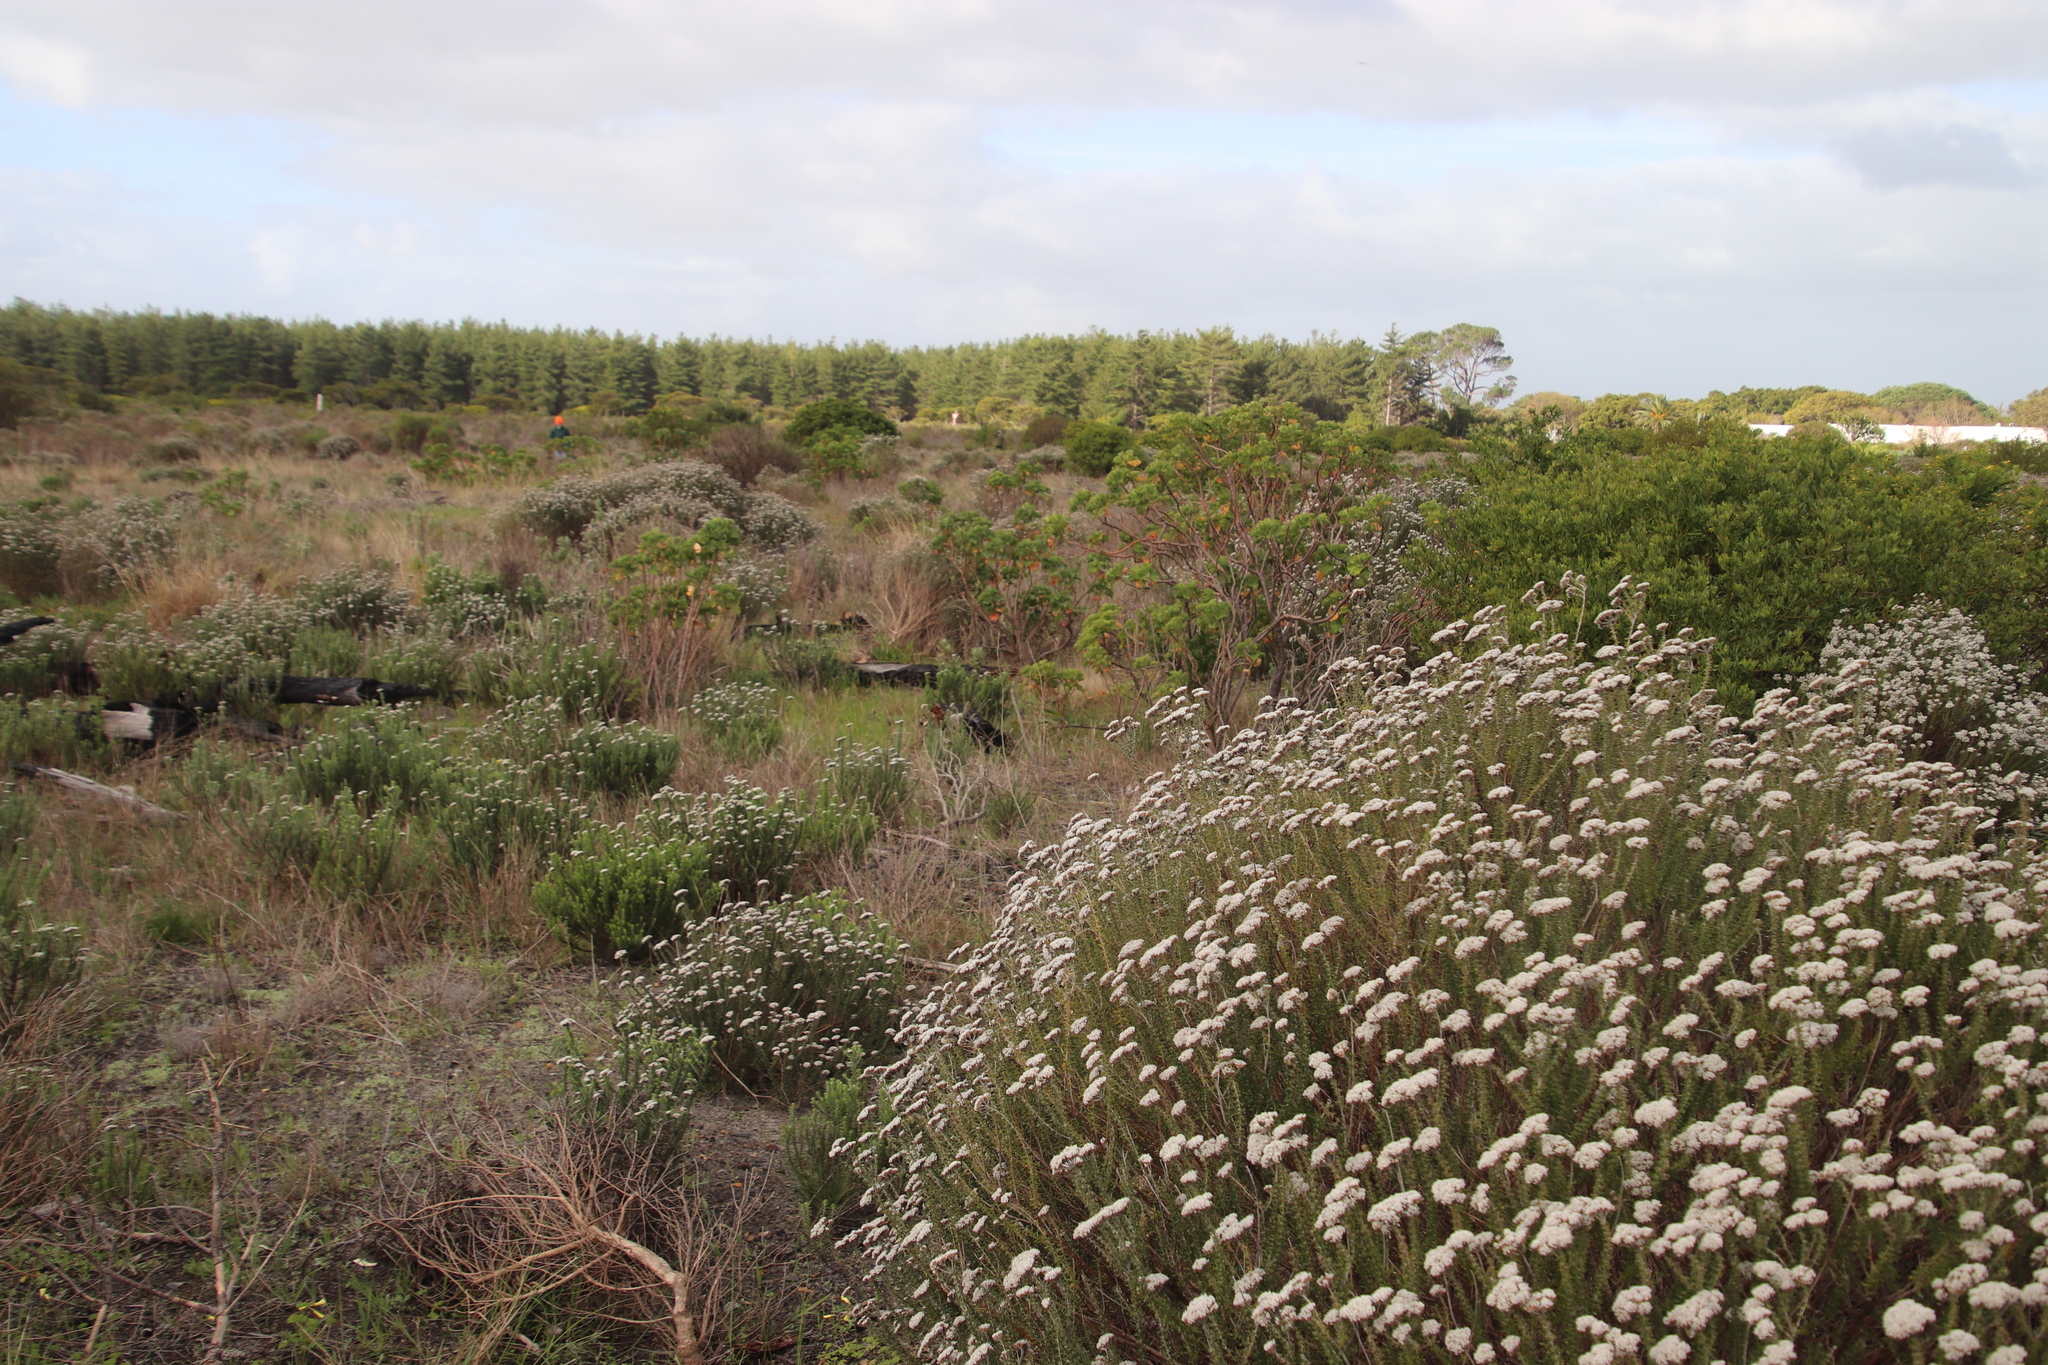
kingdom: Plantae
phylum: Tracheophyta
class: Magnoliopsida
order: Geraniales
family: Geraniaceae
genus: Pelargonium
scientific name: Pelargonium cucullatum
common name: Tree pelargonium
